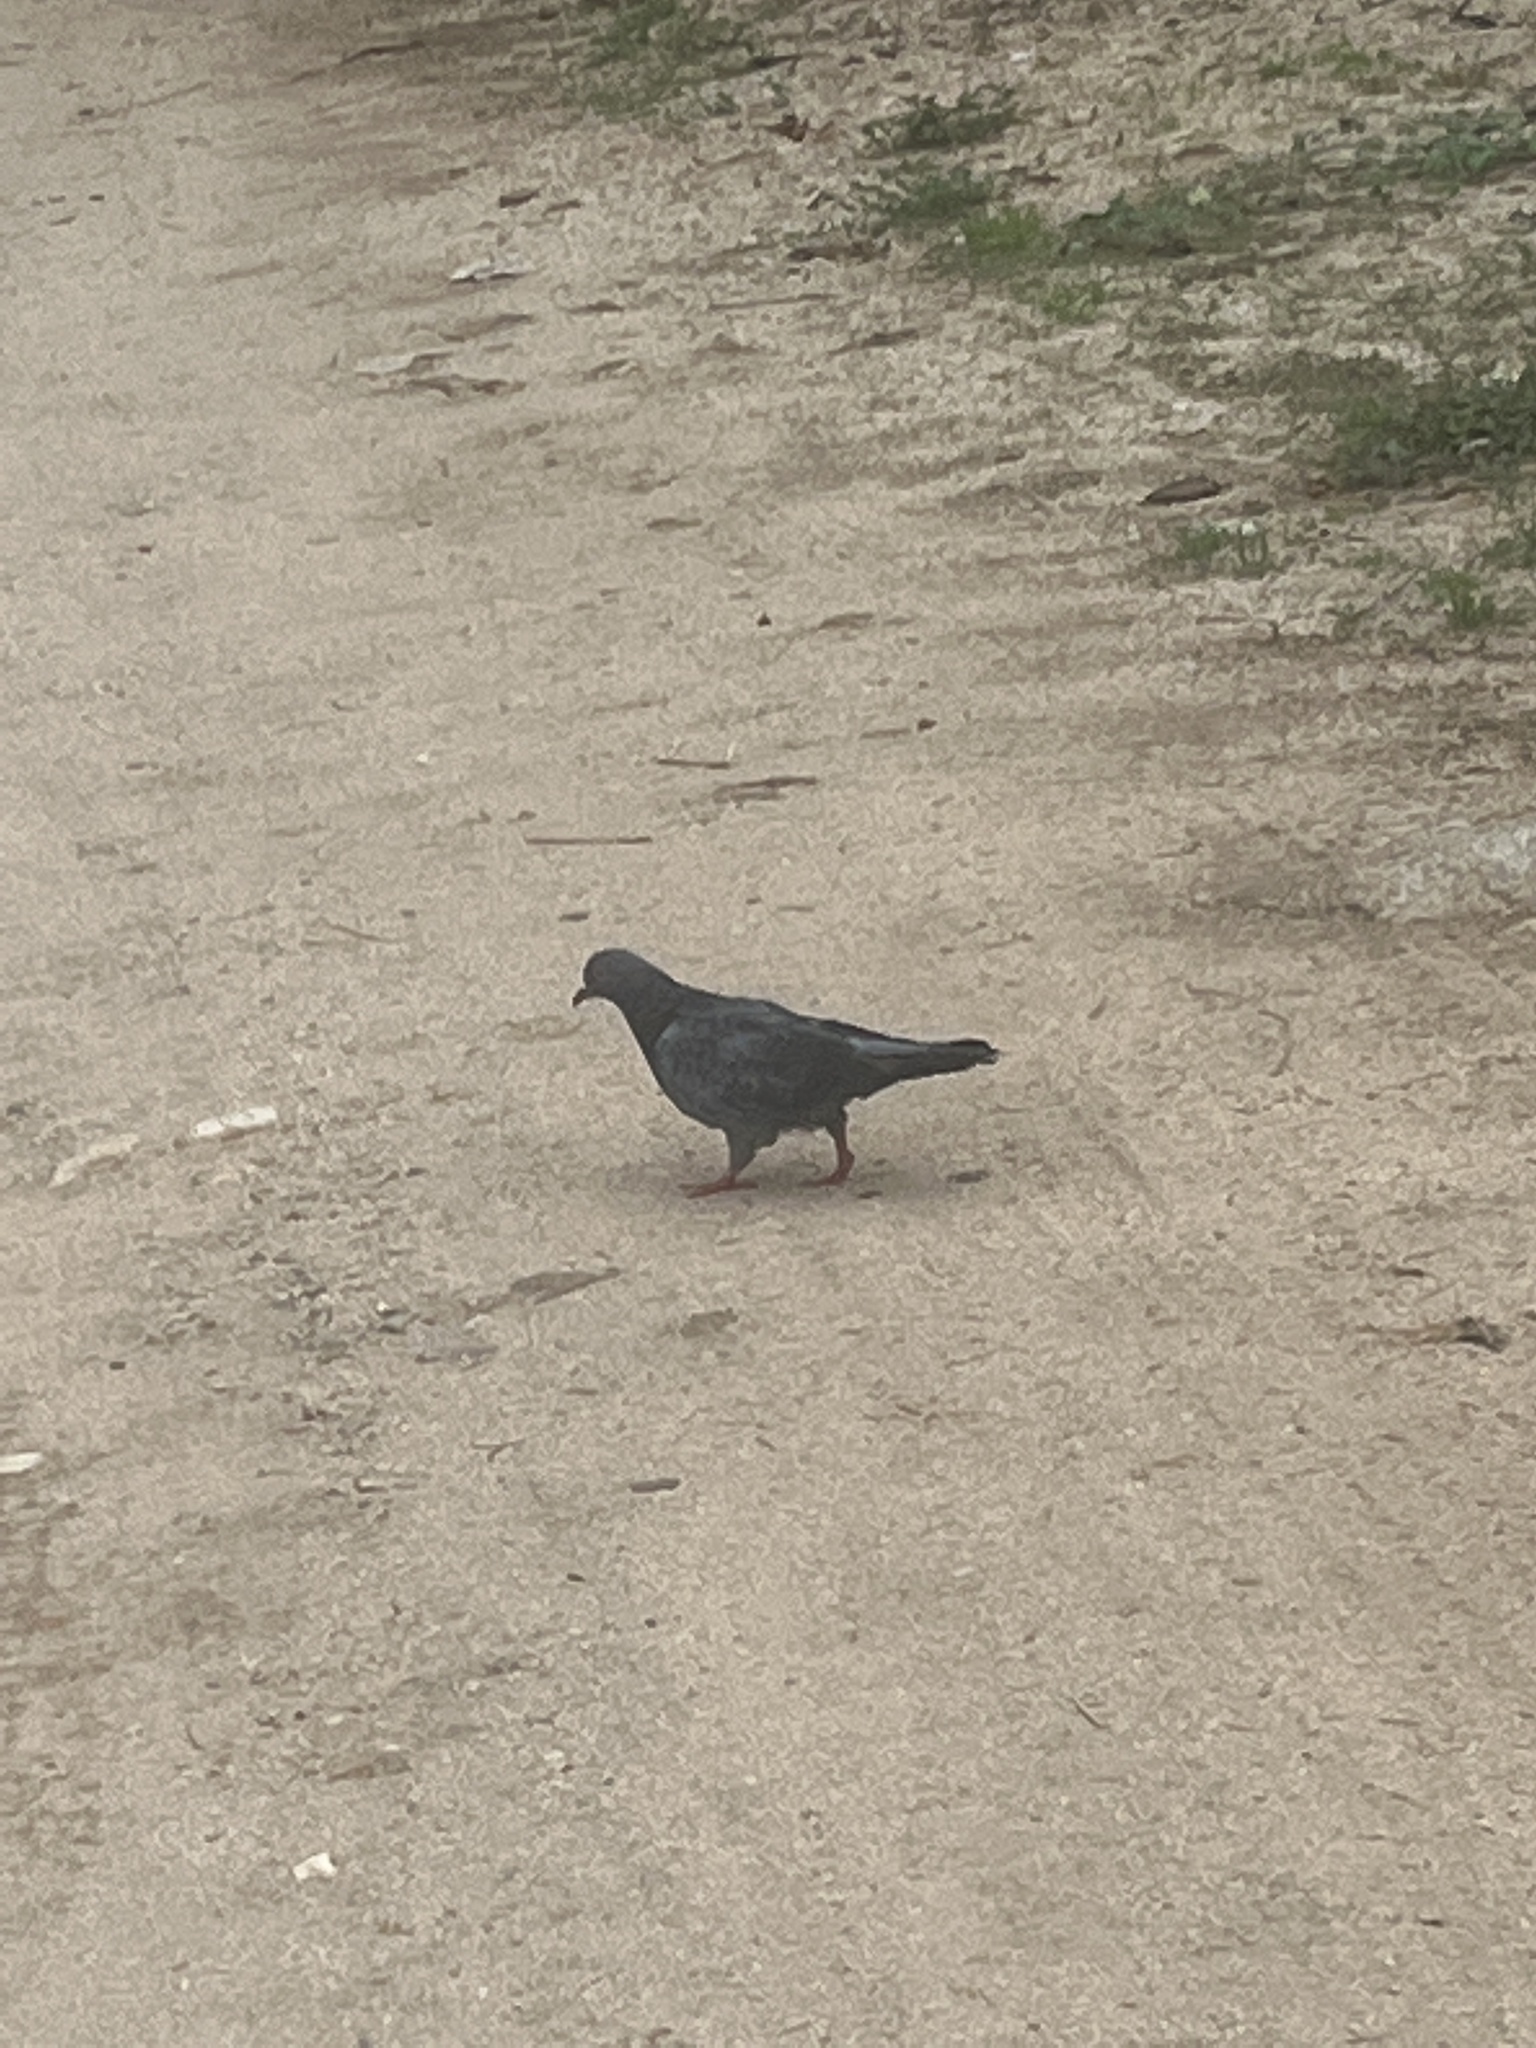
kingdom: Animalia
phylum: Chordata
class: Aves
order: Columbiformes
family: Columbidae
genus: Columba
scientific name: Columba livia
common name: Rock pigeon
